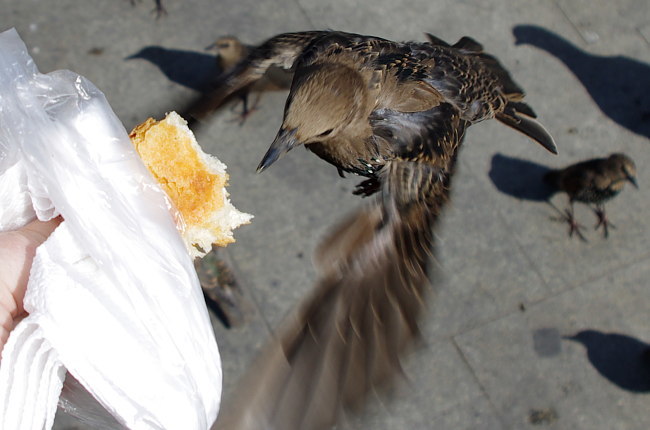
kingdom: Animalia
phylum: Chordata
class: Aves
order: Passeriformes
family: Sturnidae
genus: Sturnus
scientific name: Sturnus vulgaris
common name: Common starling
